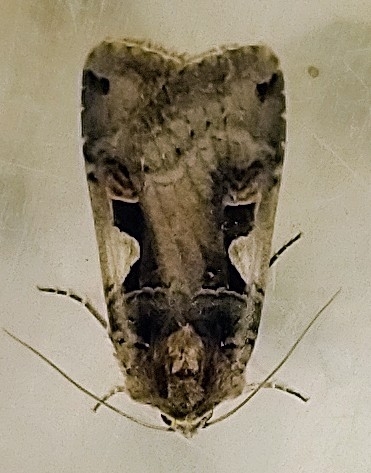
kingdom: Animalia
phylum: Arthropoda
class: Insecta
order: Lepidoptera
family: Noctuidae
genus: Xestia
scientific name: Xestia c-nigrum
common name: Setaceous hebrew character
